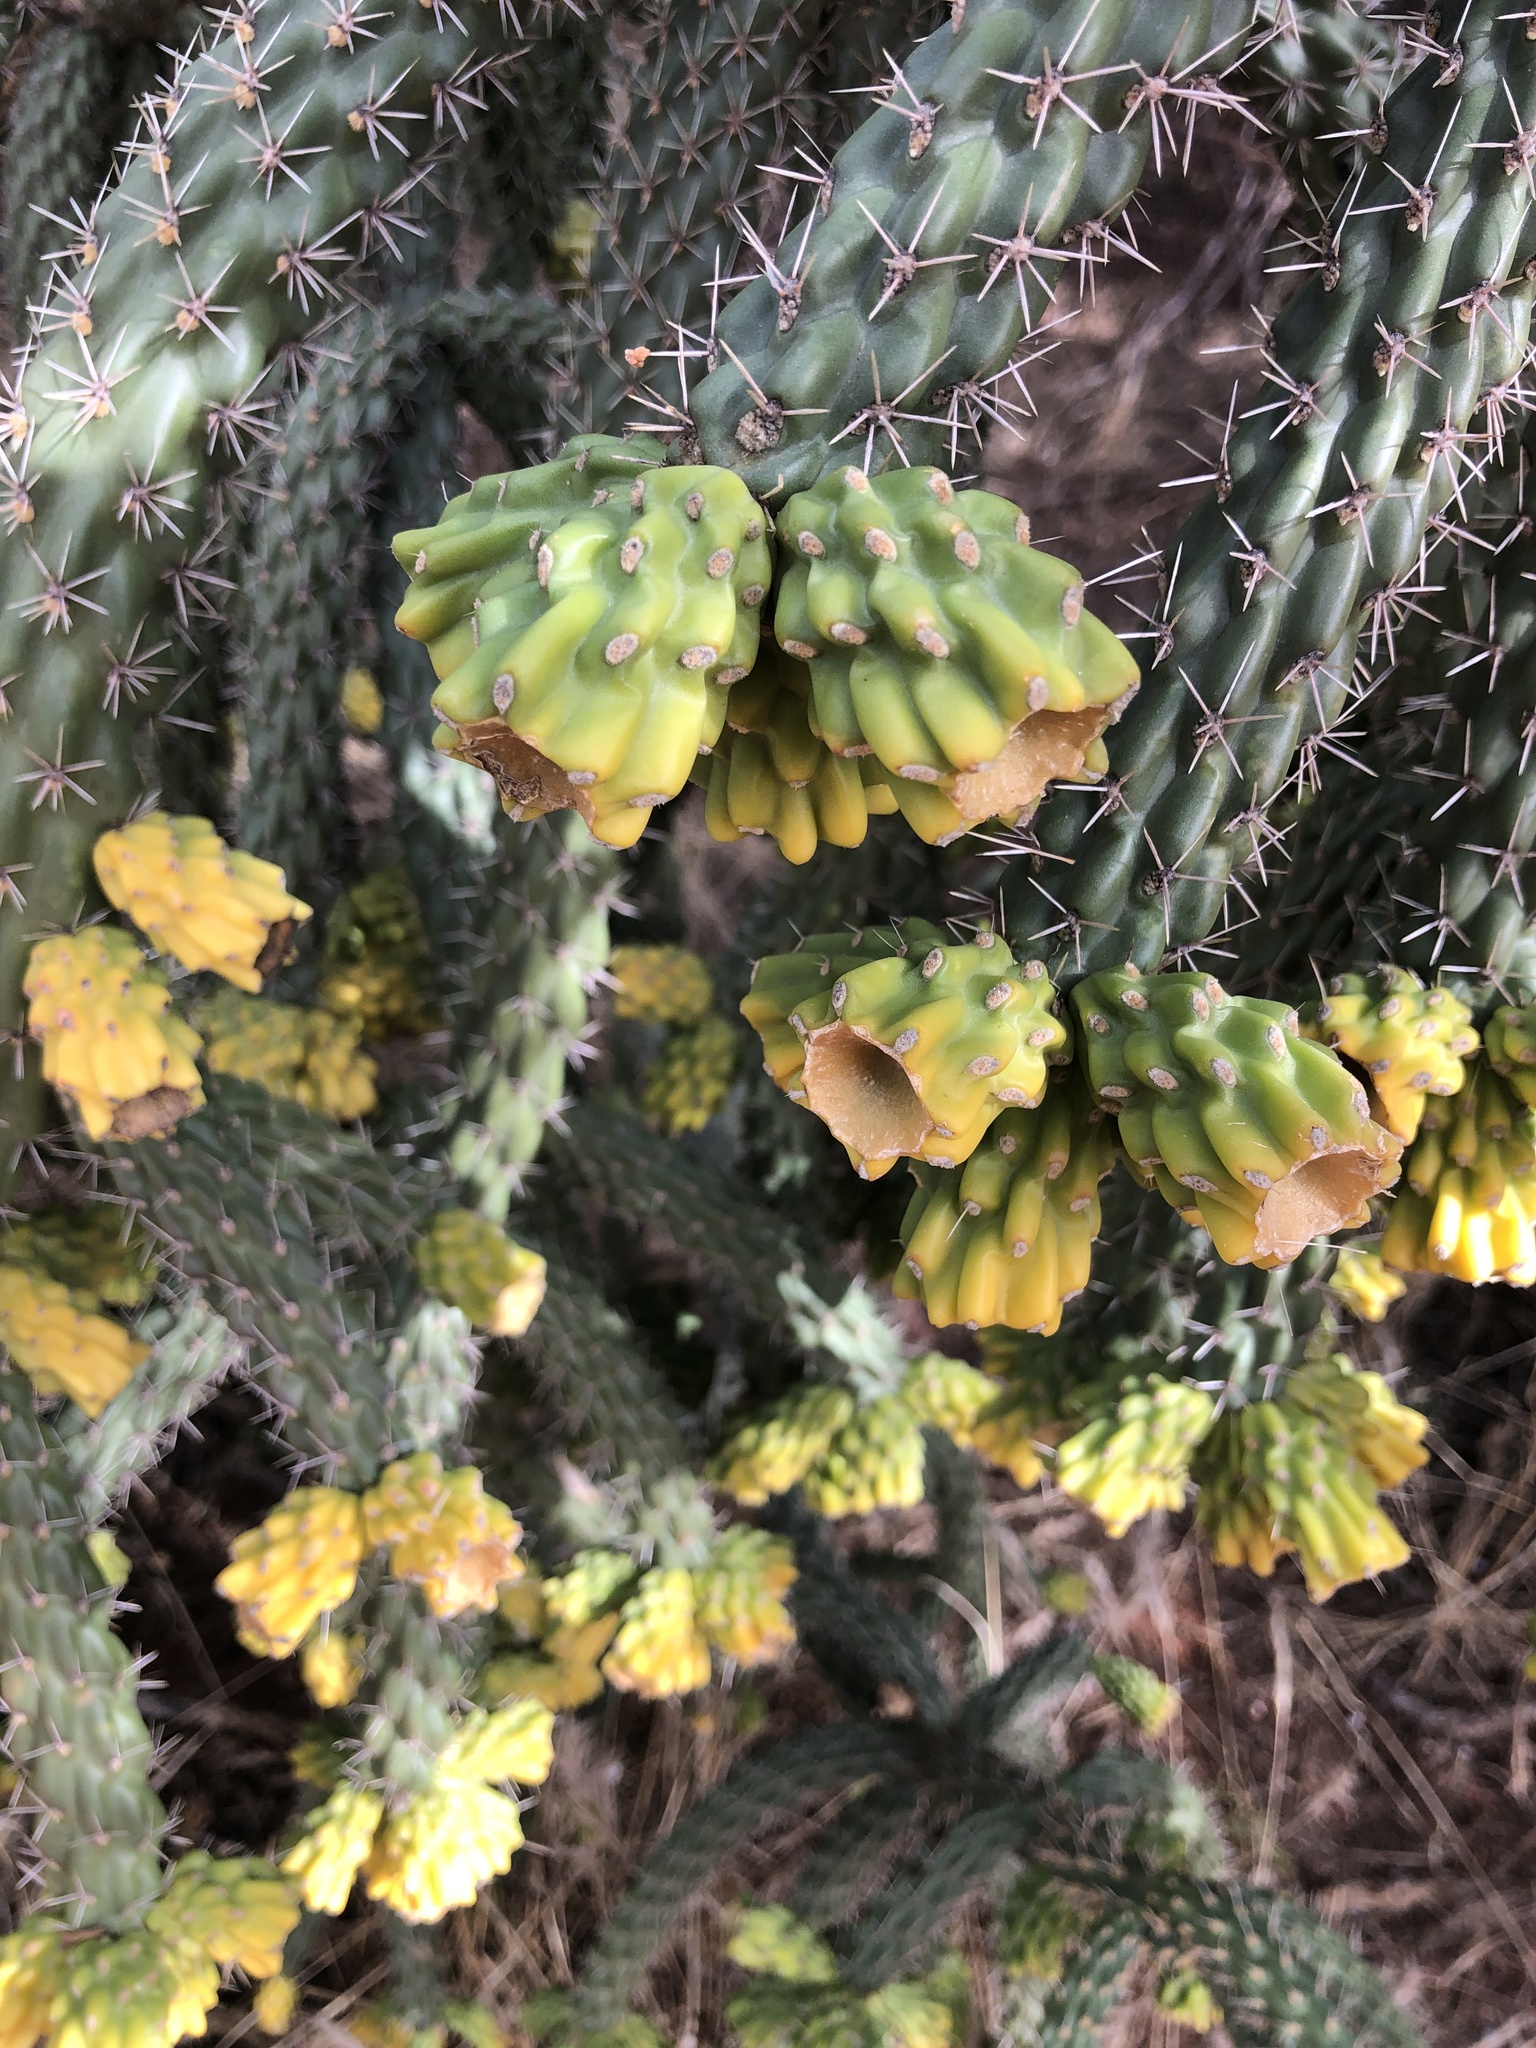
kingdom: Plantae
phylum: Tracheophyta
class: Magnoliopsida
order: Caryophyllales
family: Cactaceae
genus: Cylindropuntia
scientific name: Cylindropuntia imbricata
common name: Candelabrum cactus
